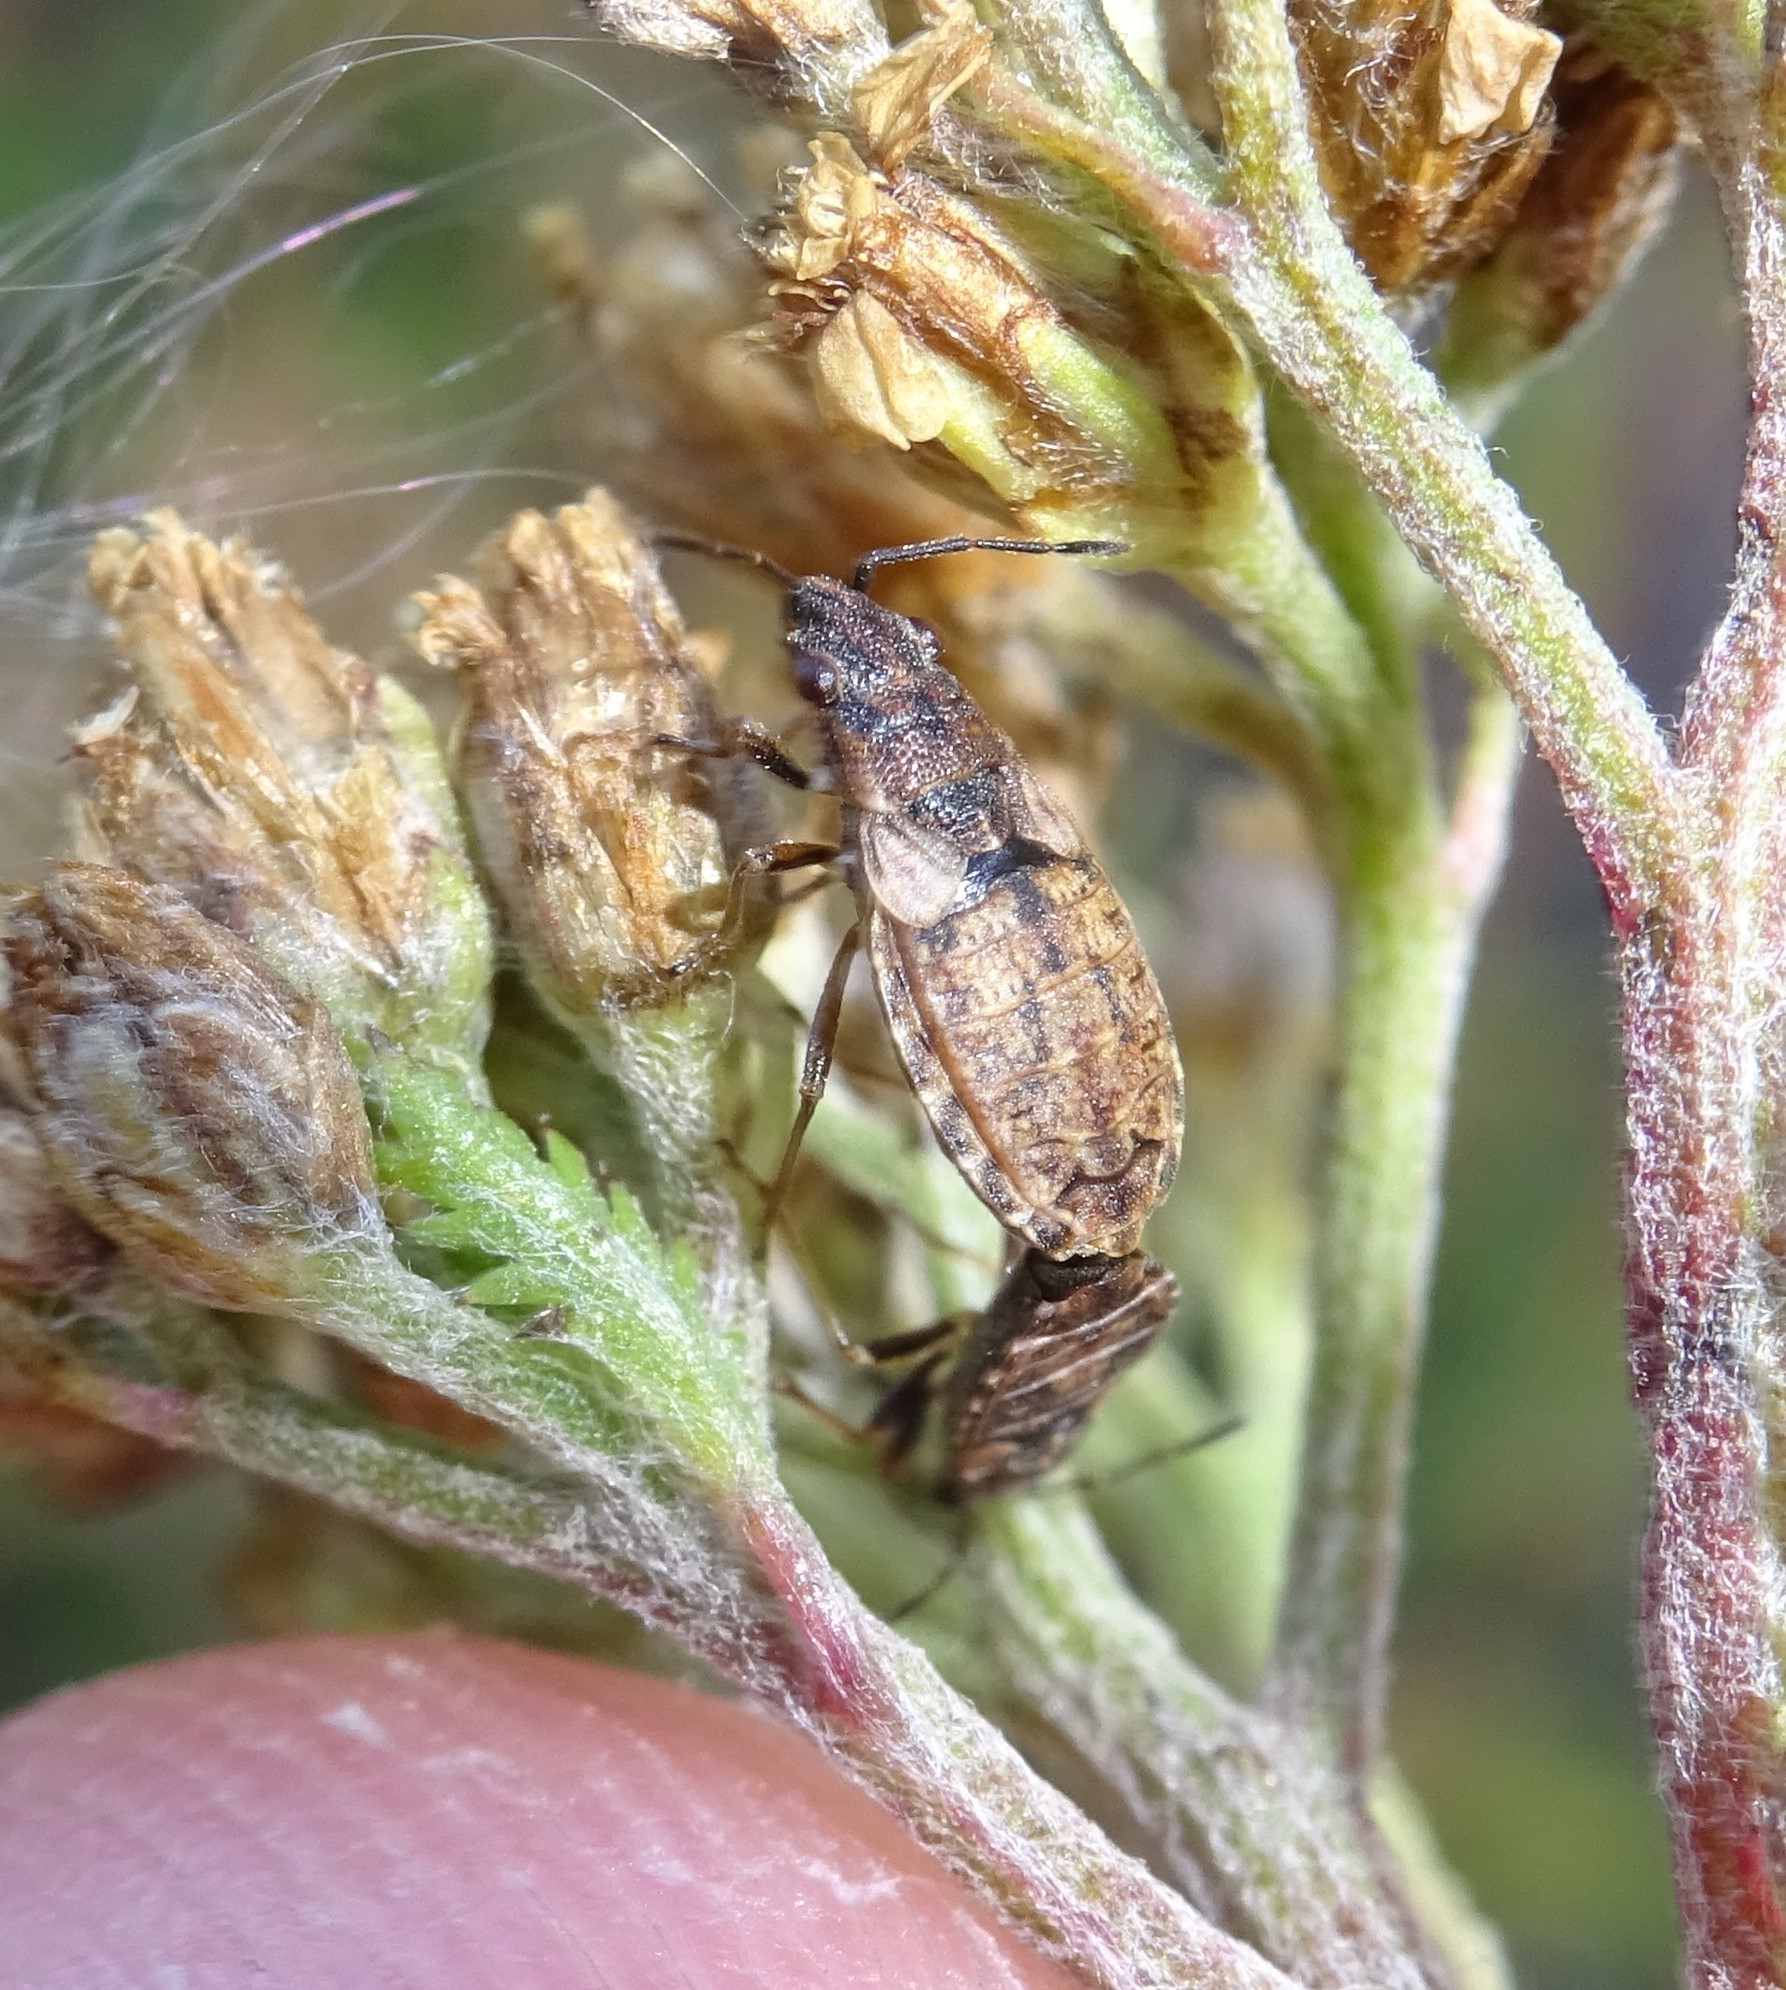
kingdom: Animalia
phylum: Arthropoda
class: Insecta
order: Hemiptera
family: Lygaeidae
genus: Nithecus
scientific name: Nithecus jacobaeae
